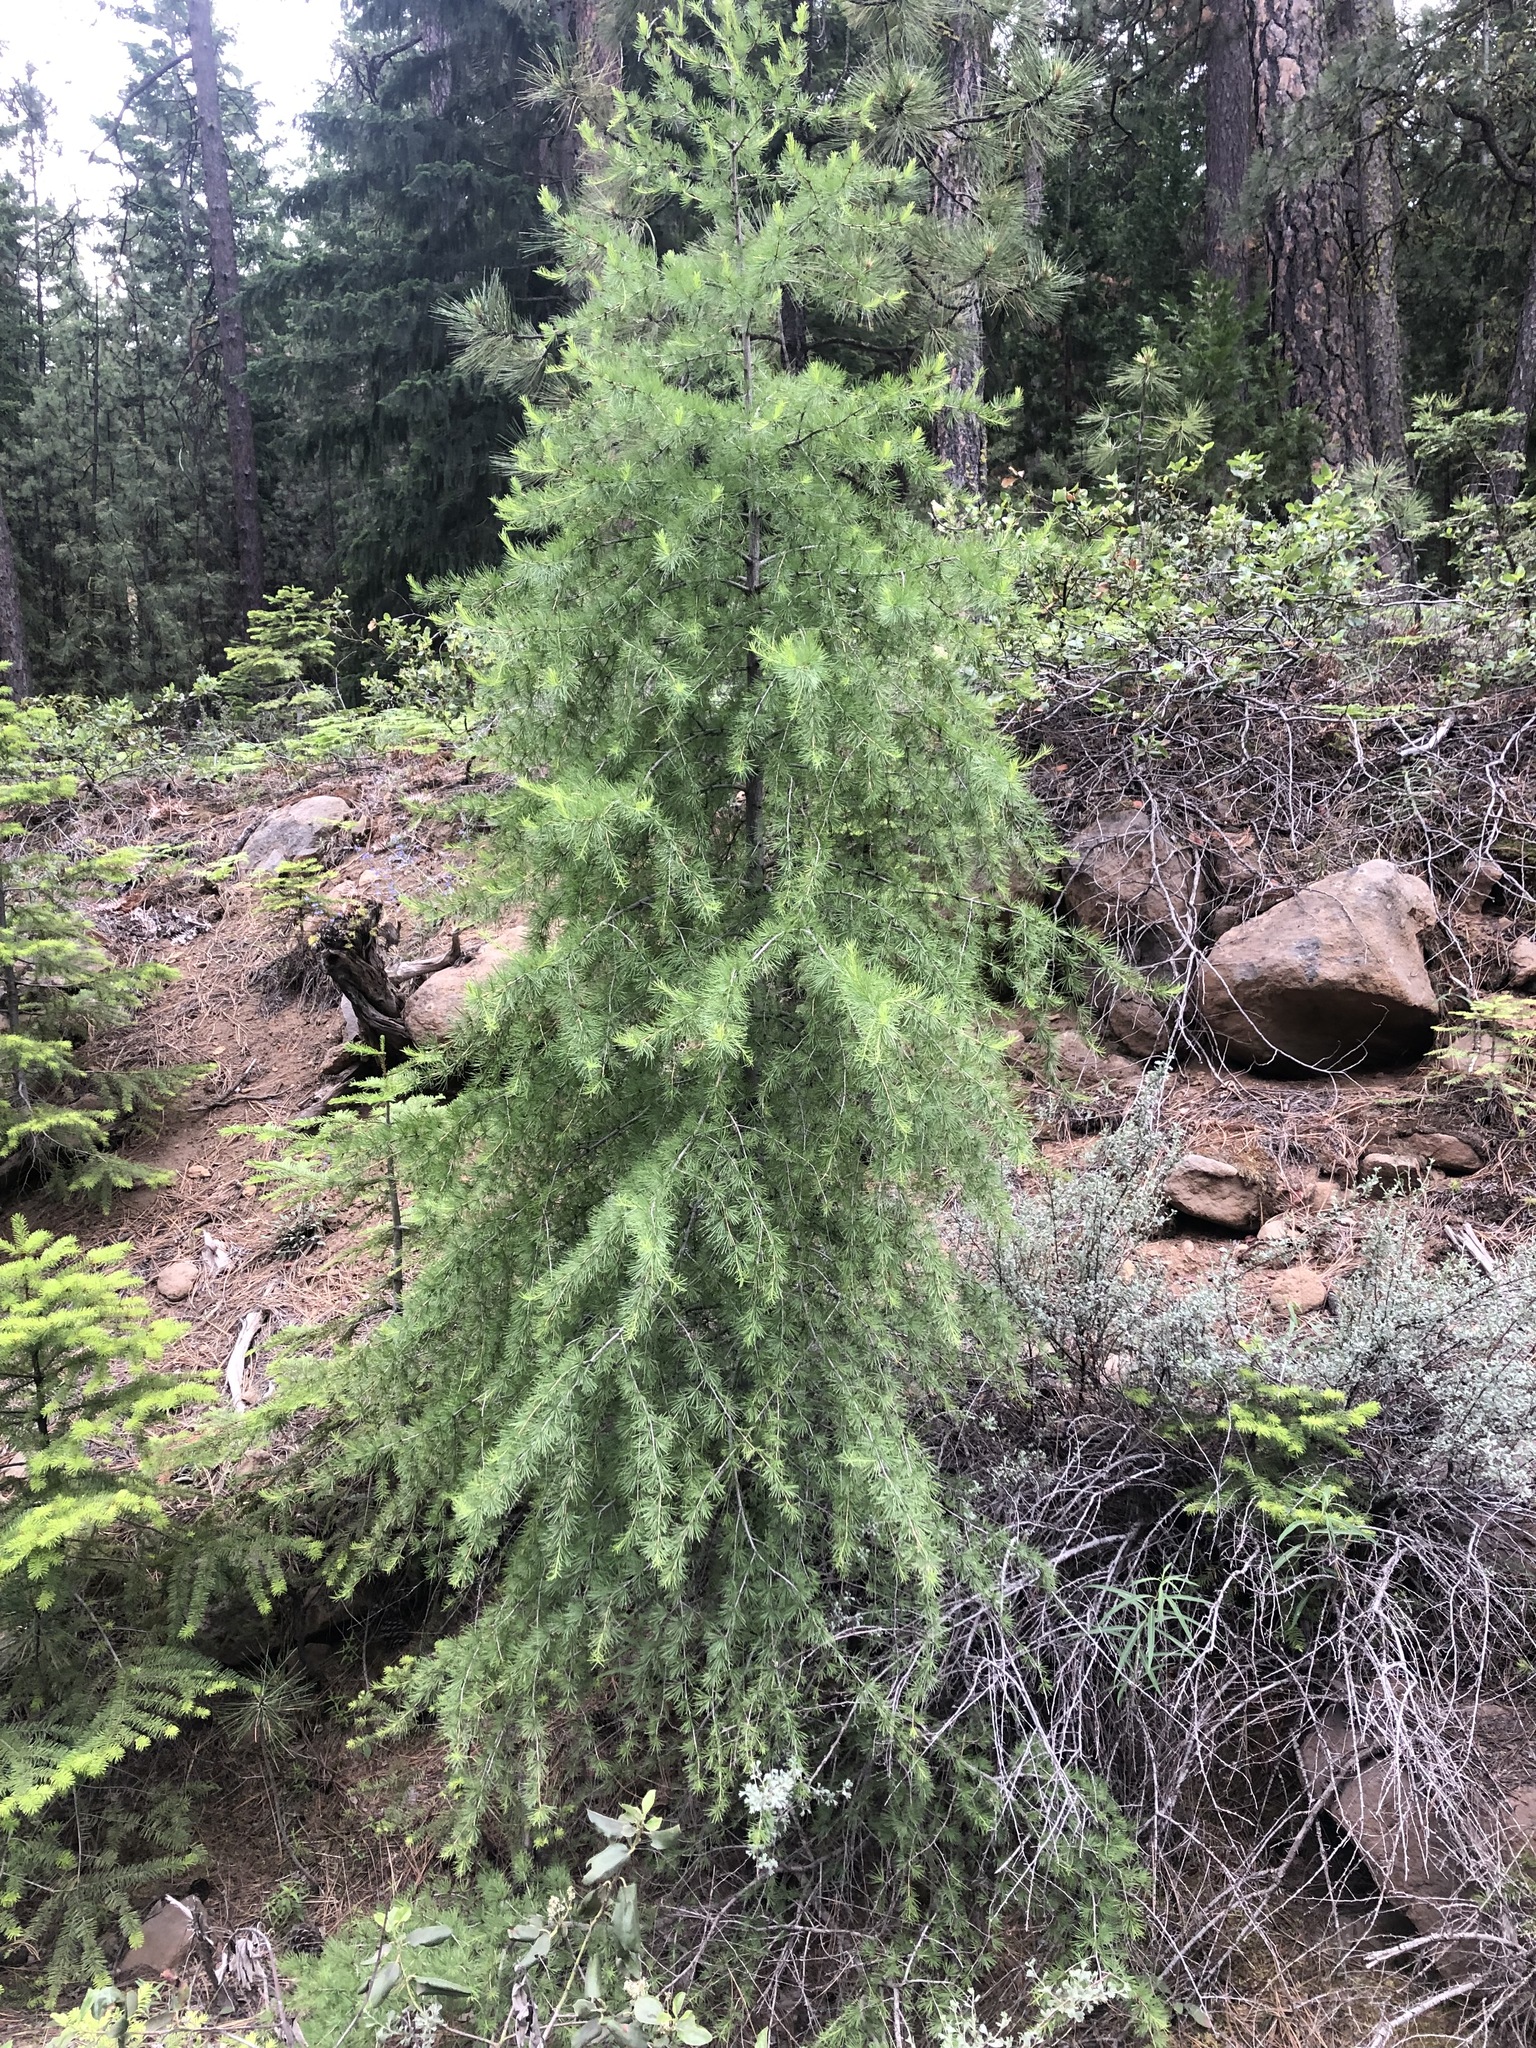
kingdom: Plantae
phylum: Tracheophyta
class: Pinopsida
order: Pinales
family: Pinaceae
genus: Larix
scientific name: Larix occidentalis
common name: Western larch
